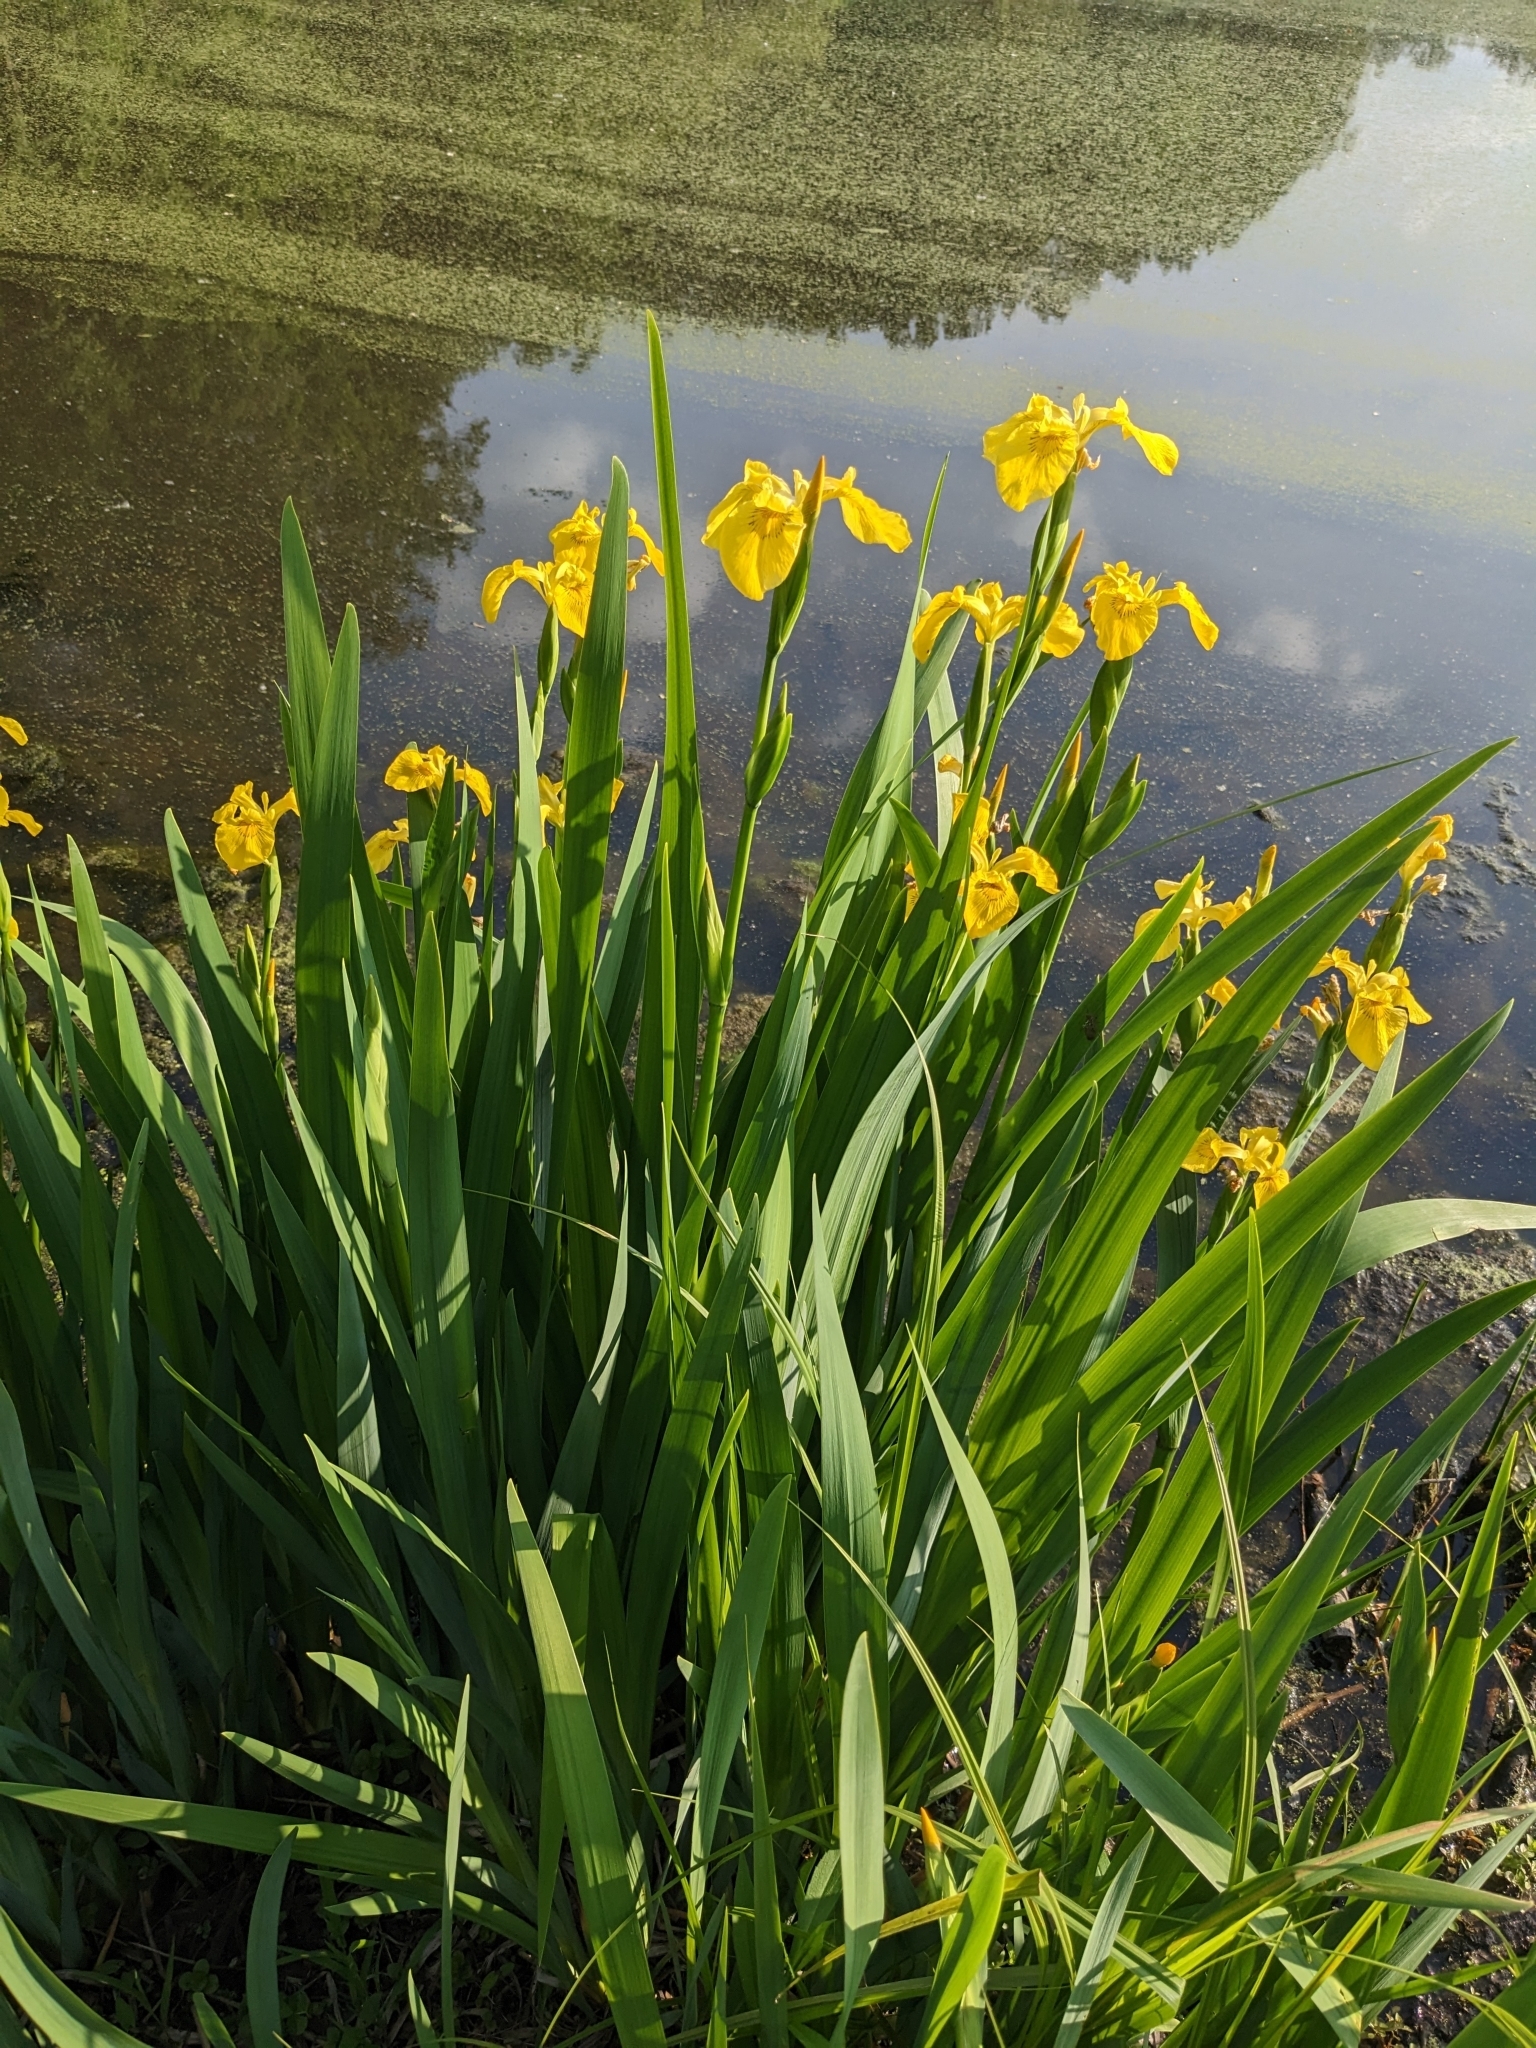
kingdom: Plantae
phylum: Tracheophyta
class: Liliopsida
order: Asparagales
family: Iridaceae
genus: Iris
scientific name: Iris pseudacorus
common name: Yellow flag
